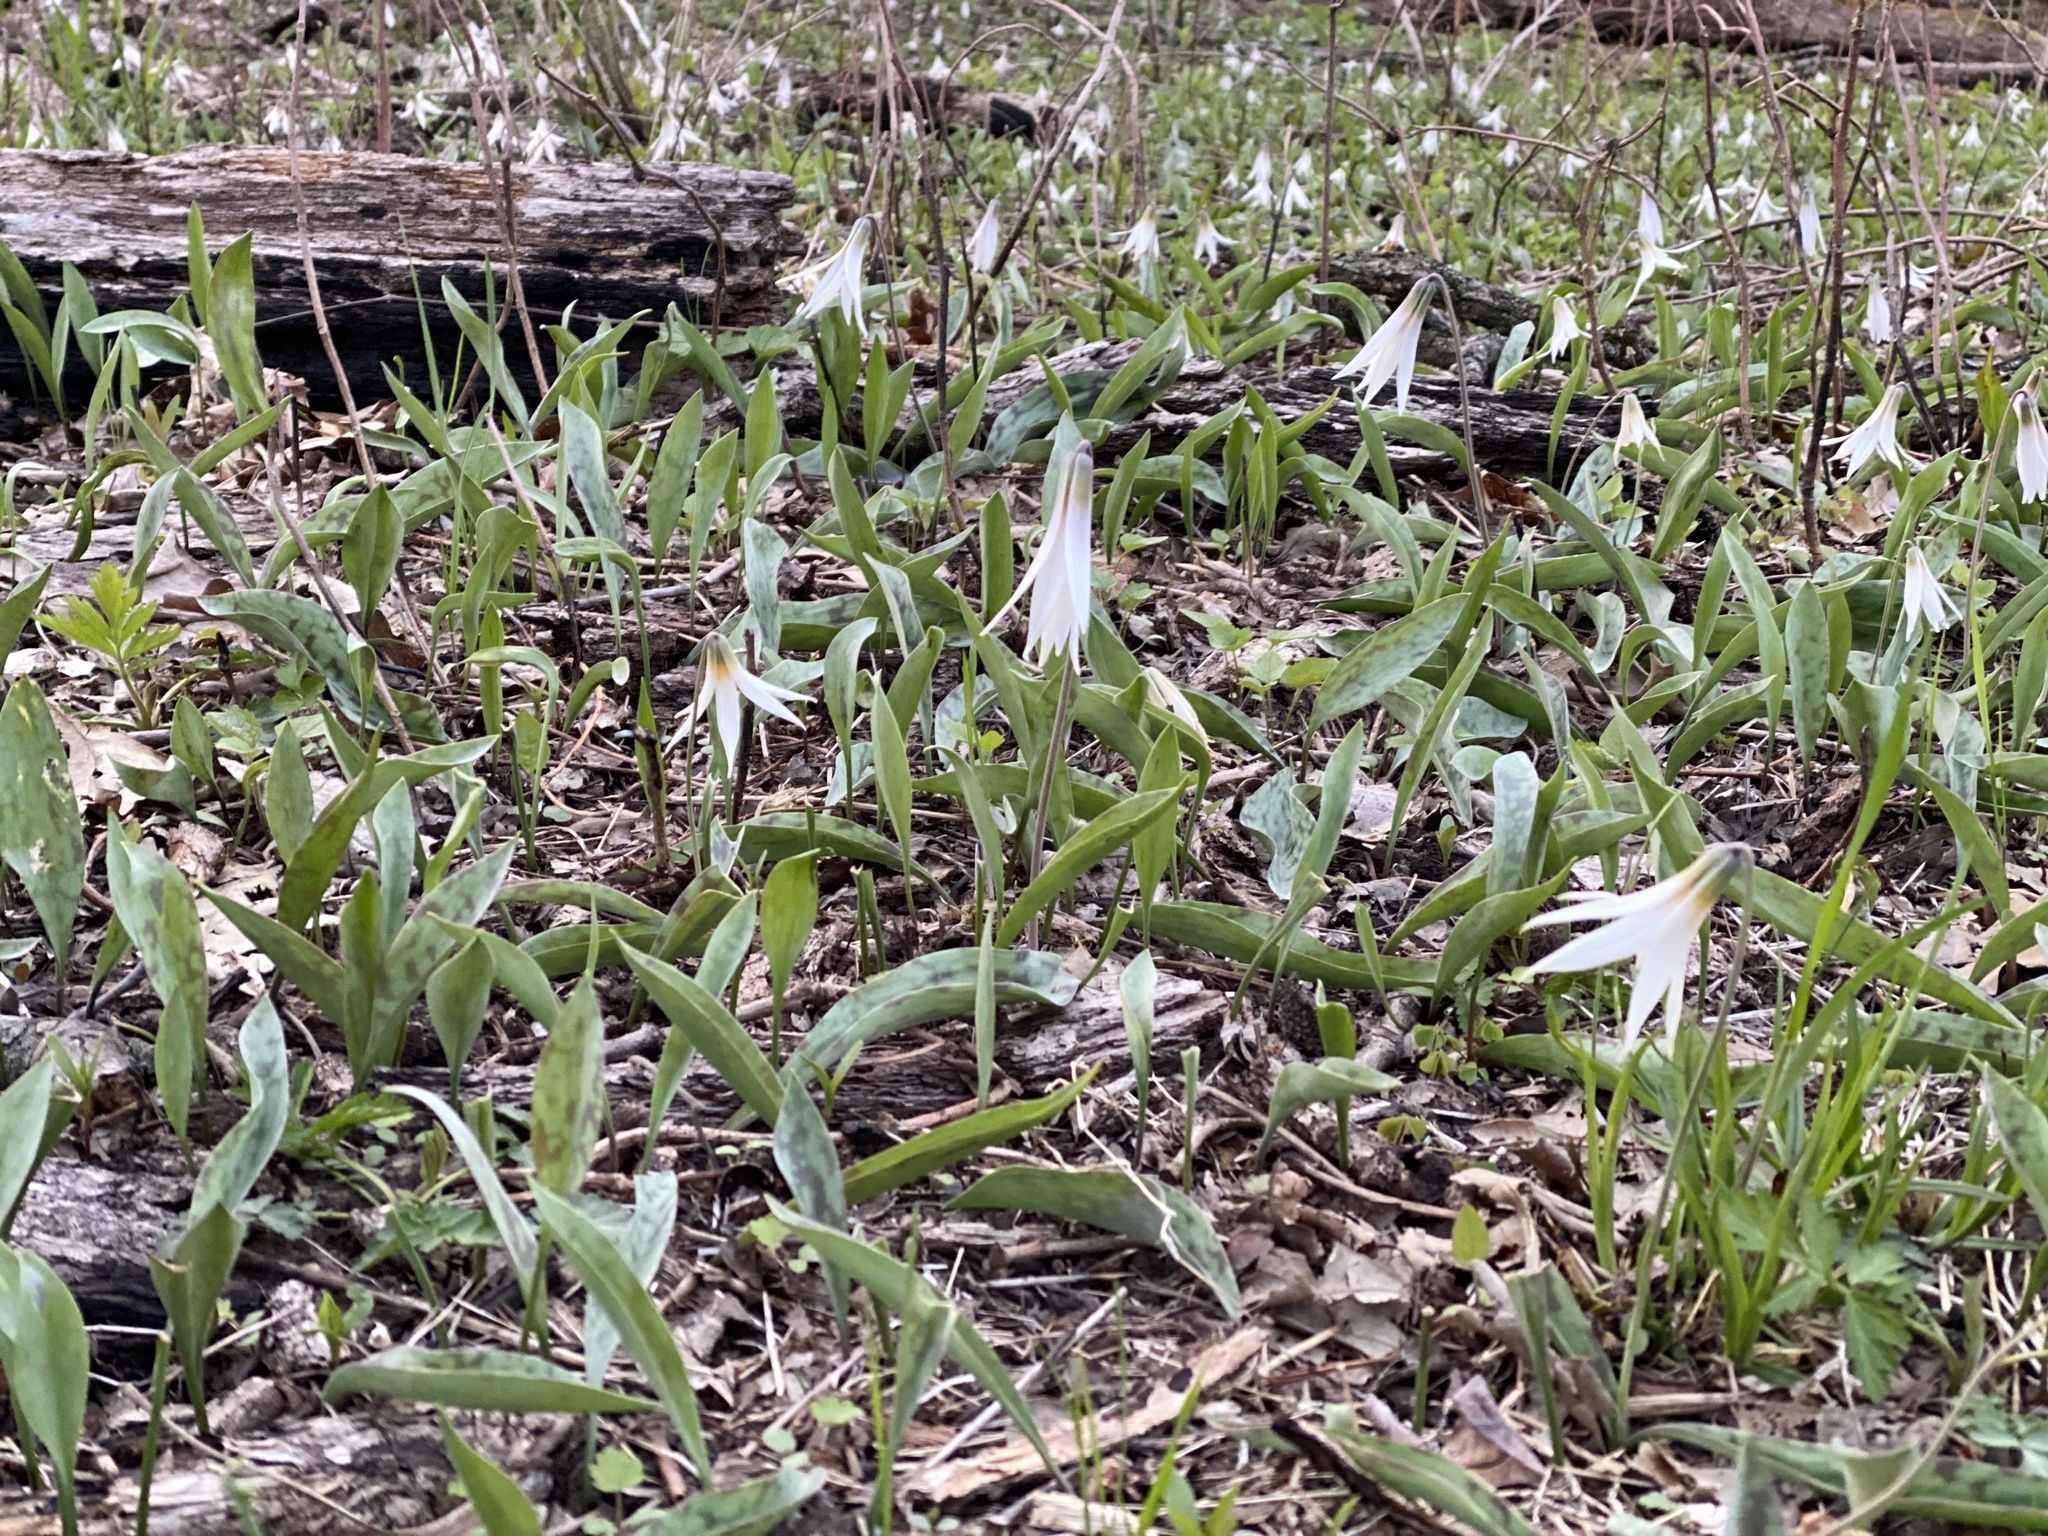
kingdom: Plantae
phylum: Tracheophyta
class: Liliopsida
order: Liliales
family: Liliaceae
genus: Erythronium
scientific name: Erythronium albidum
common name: White trout-lily
